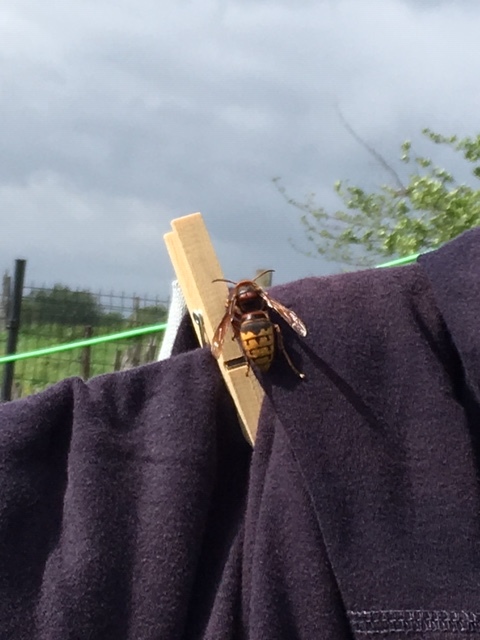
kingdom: Animalia
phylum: Arthropoda
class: Insecta
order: Hymenoptera
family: Vespidae
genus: Vespa
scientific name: Vespa crabro
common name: Hornet
